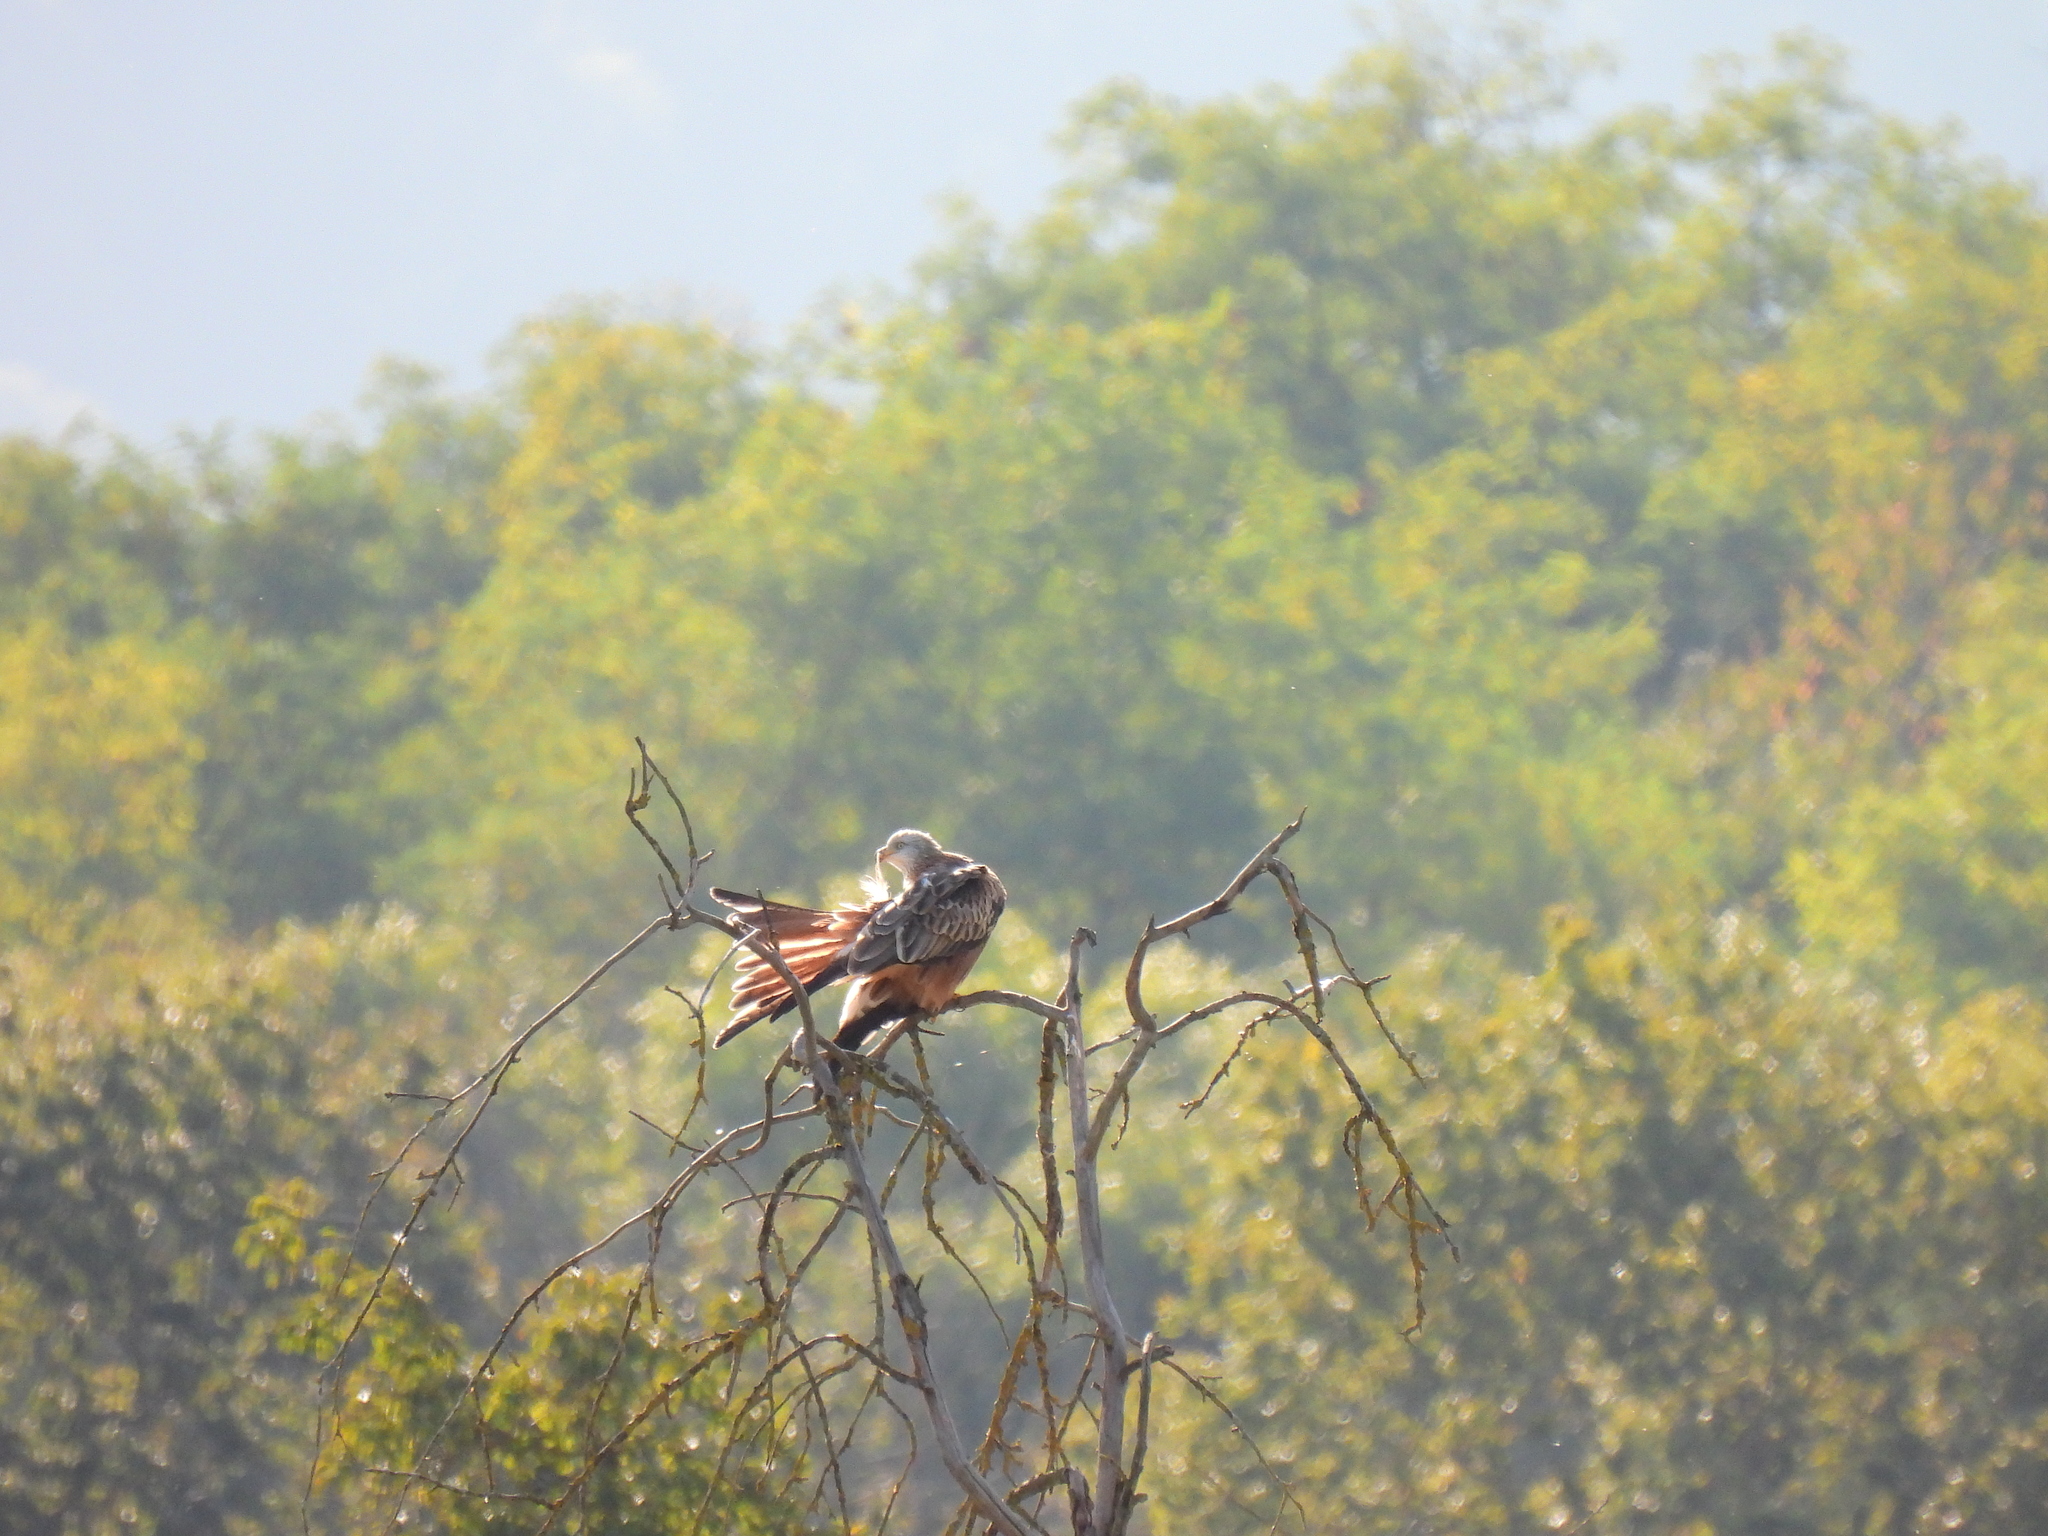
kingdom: Animalia
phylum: Chordata
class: Aves
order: Accipitriformes
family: Accipitridae
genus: Milvus
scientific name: Milvus milvus
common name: Red kite
